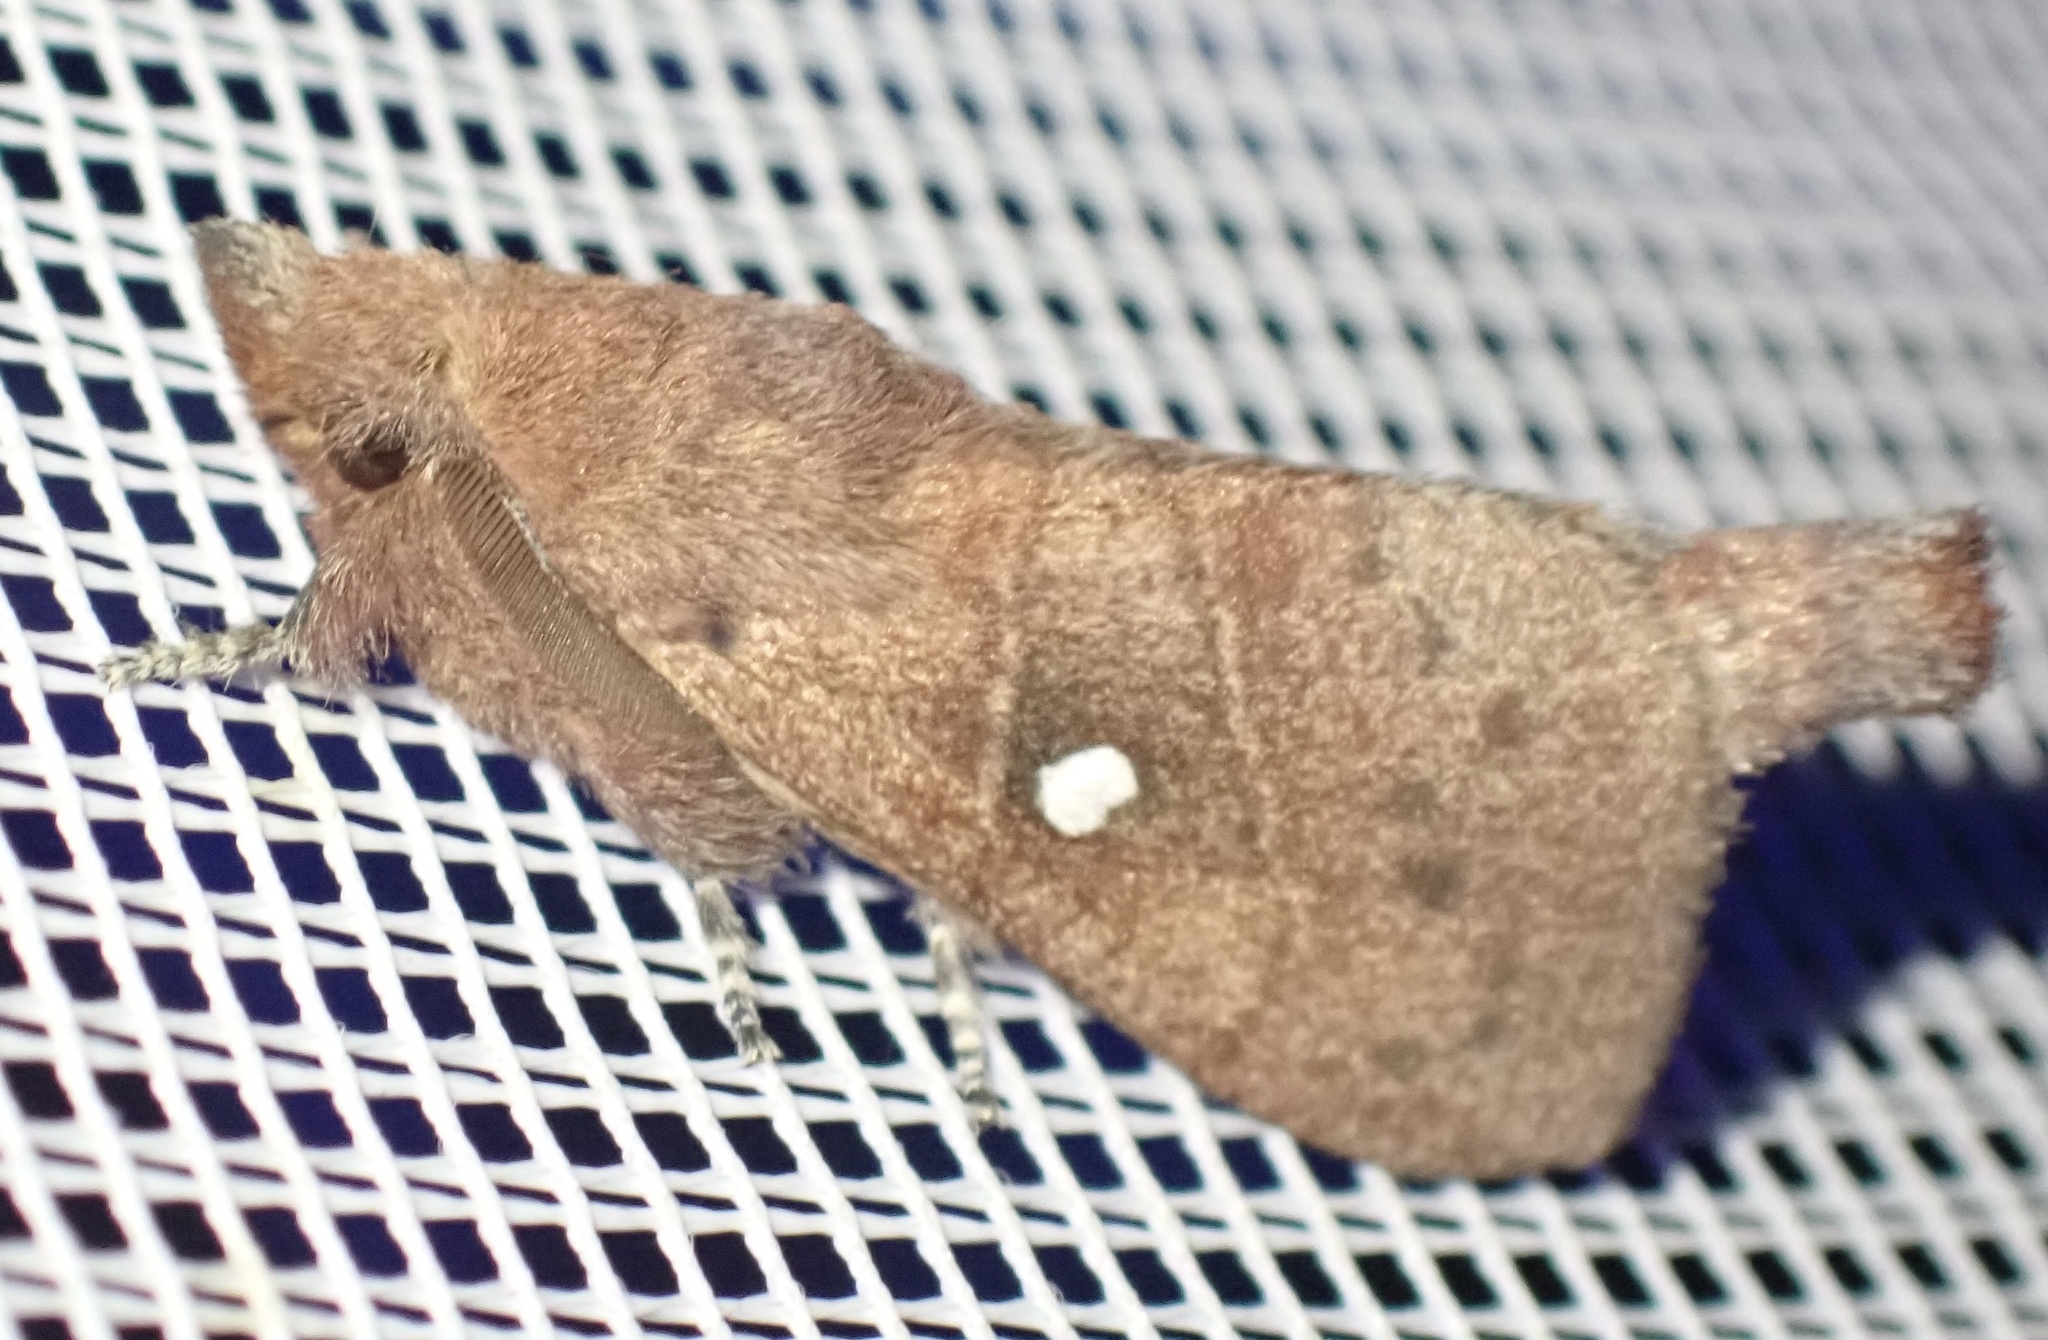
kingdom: Animalia
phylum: Arthropoda
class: Insecta
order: Lepidoptera
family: Lasiocampidae
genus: Opsirhina
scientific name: Opsirhina lechriodes
